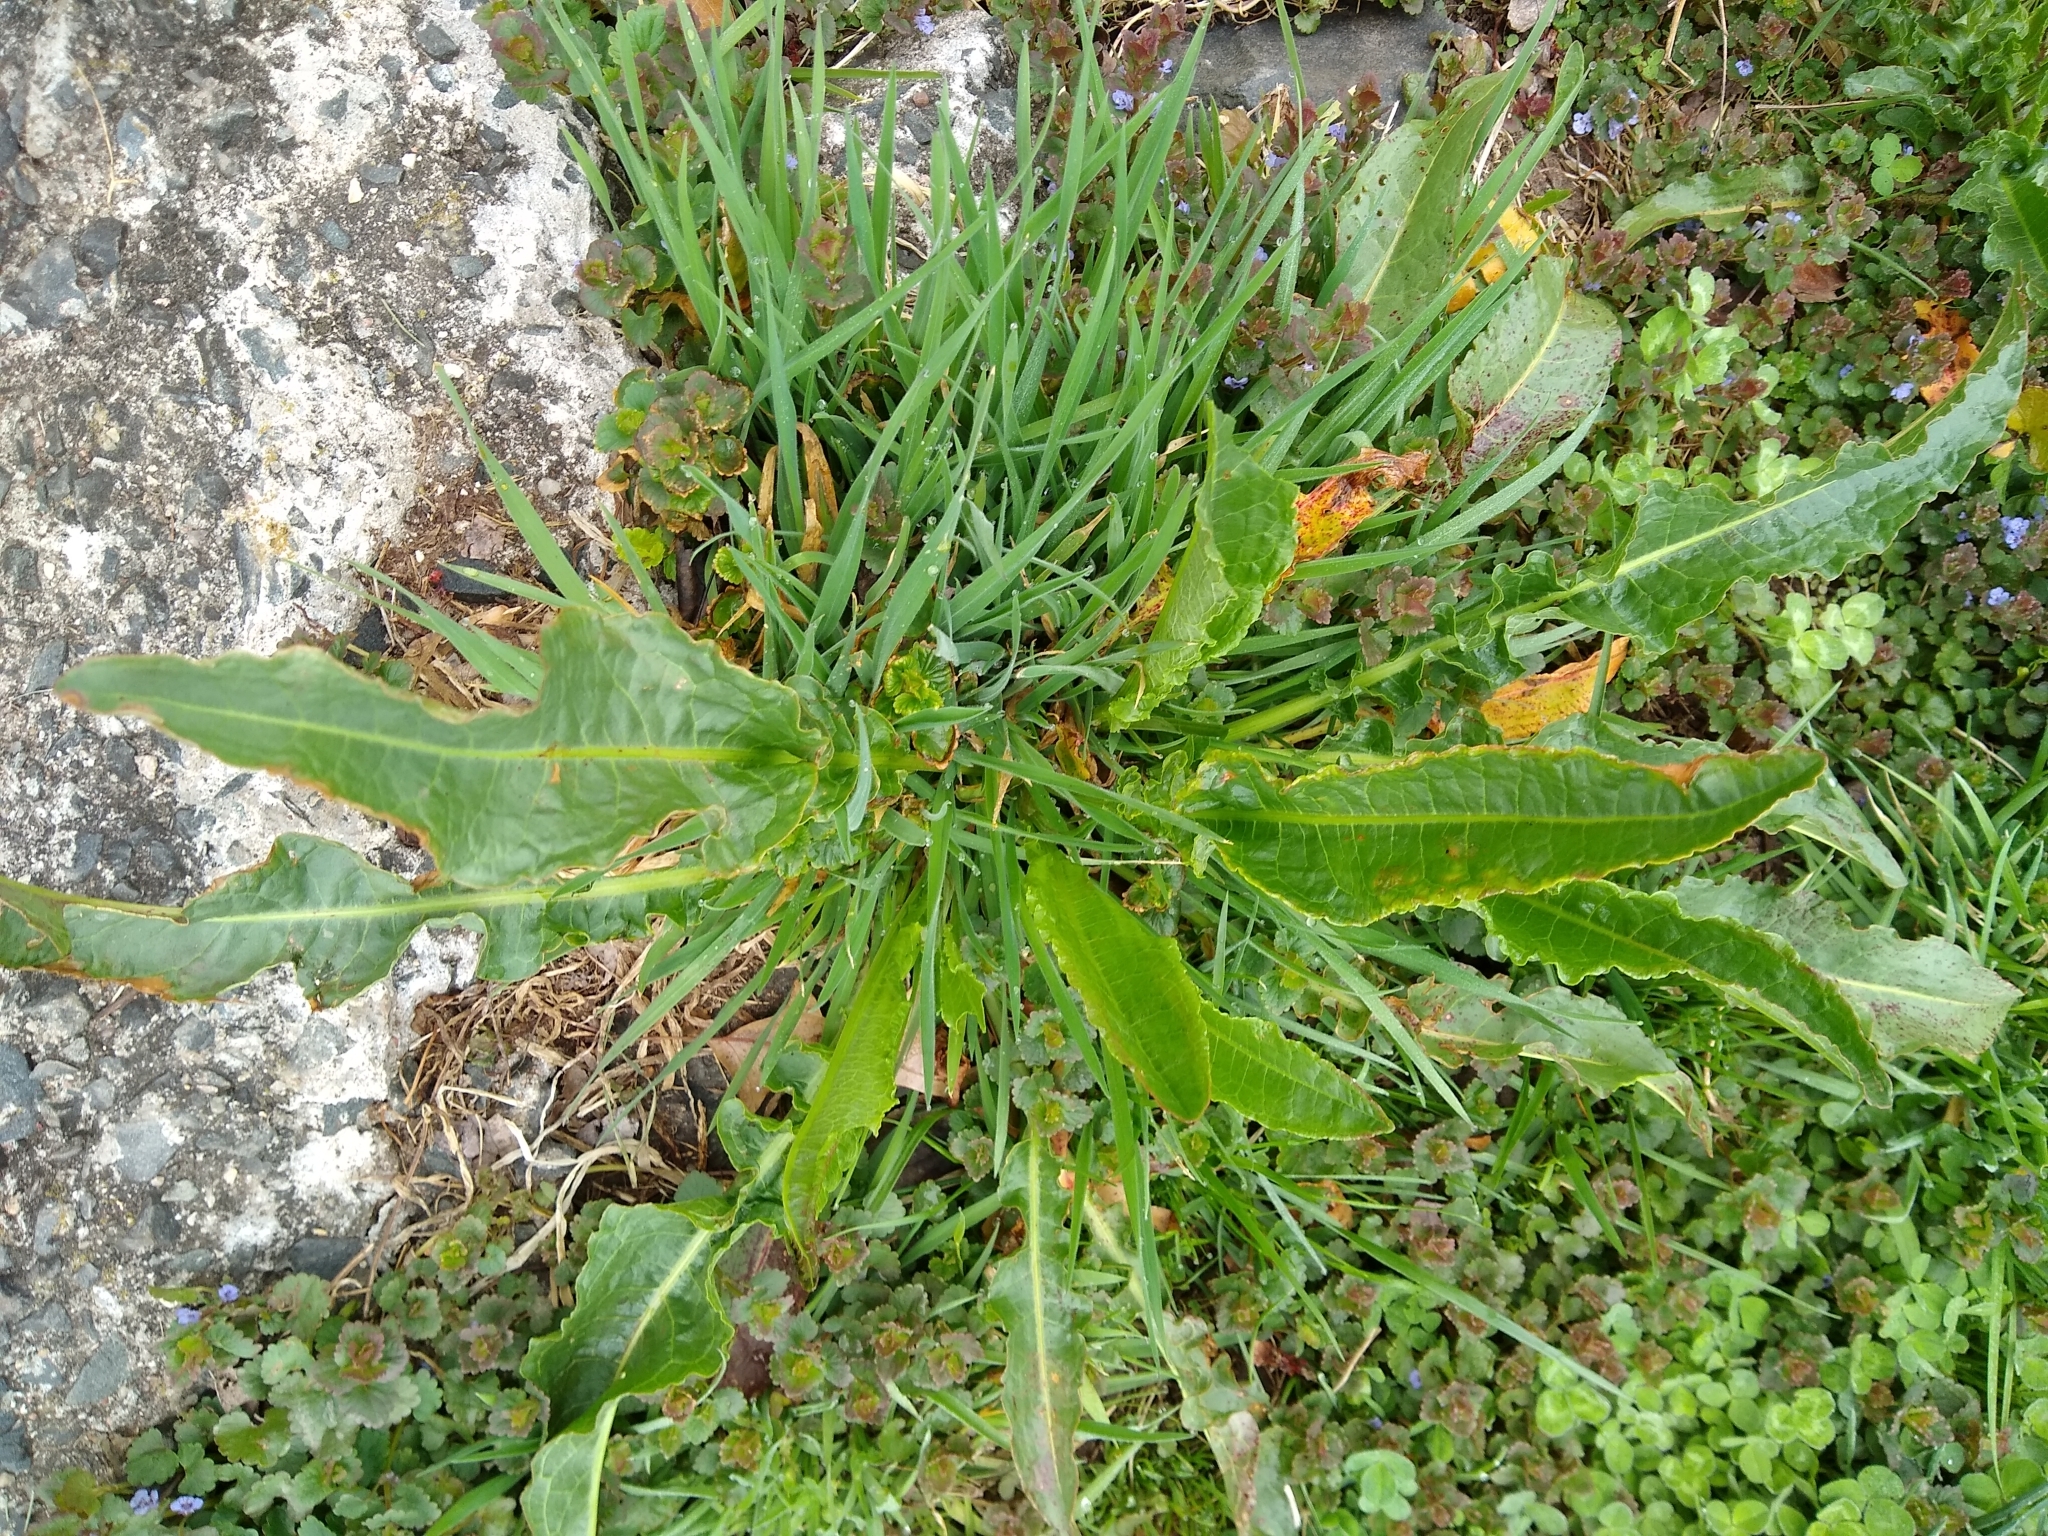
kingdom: Plantae
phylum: Tracheophyta
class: Magnoliopsida
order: Caryophyllales
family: Polygonaceae
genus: Rumex
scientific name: Rumex crispus
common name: Curled dock
